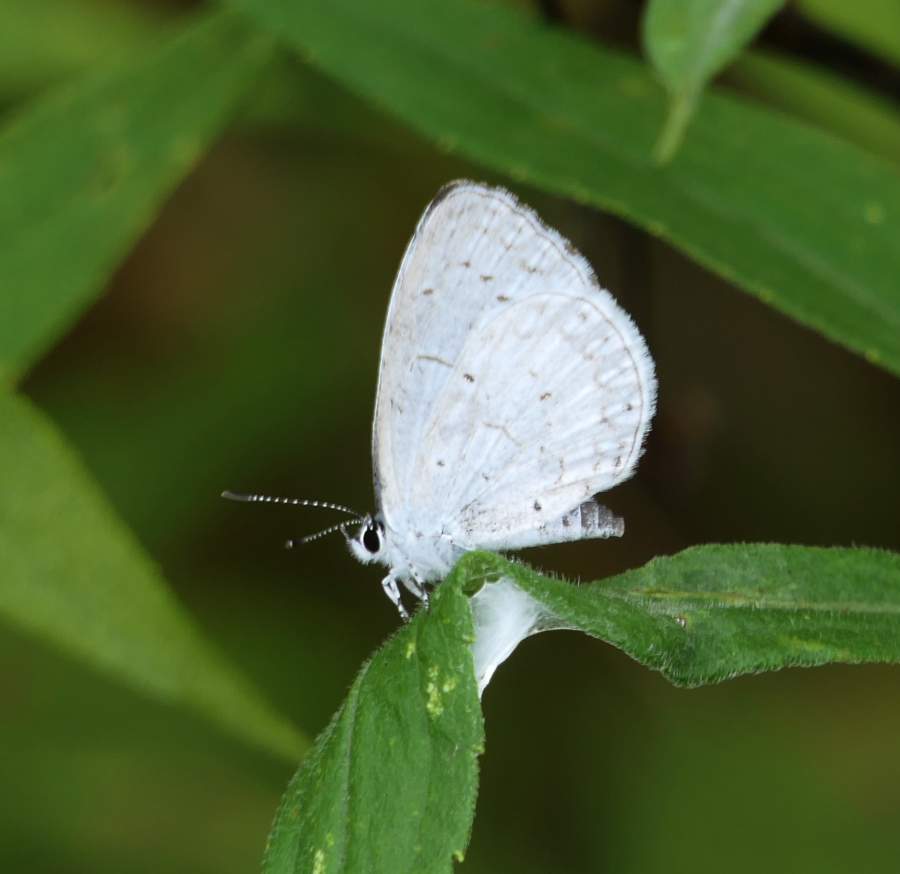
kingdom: Animalia
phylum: Arthropoda
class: Insecta
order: Lepidoptera
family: Lycaenidae
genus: Celastrina
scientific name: Celastrina lucia
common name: Lucia azure
